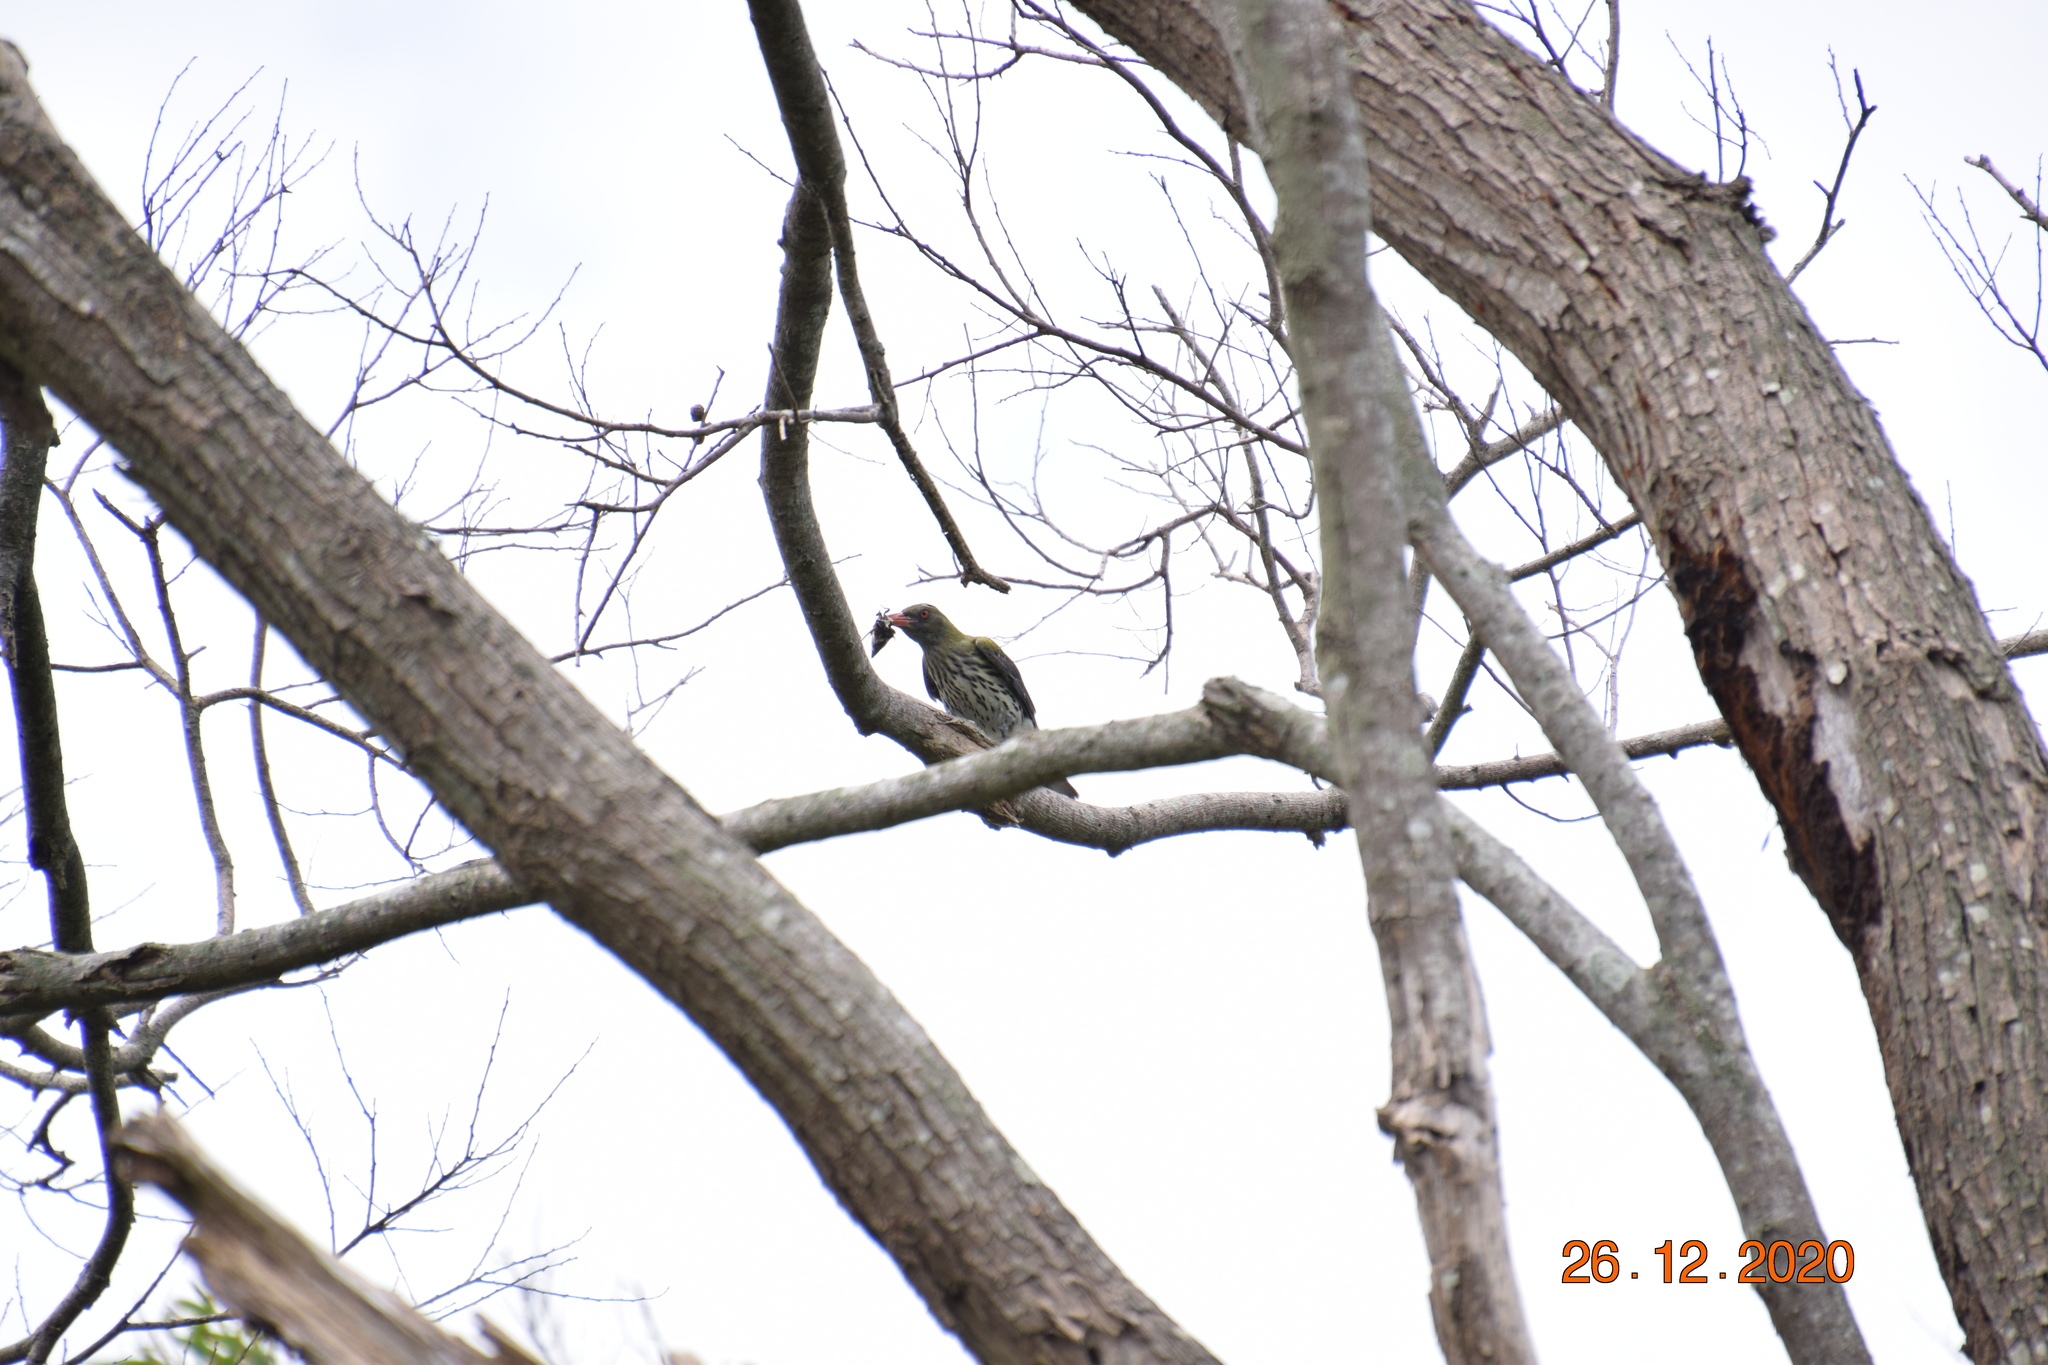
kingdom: Animalia
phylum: Chordata
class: Aves
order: Passeriformes
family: Oriolidae
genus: Oriolus
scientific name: Oriolus sagittatus
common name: Olive-backed oriole
